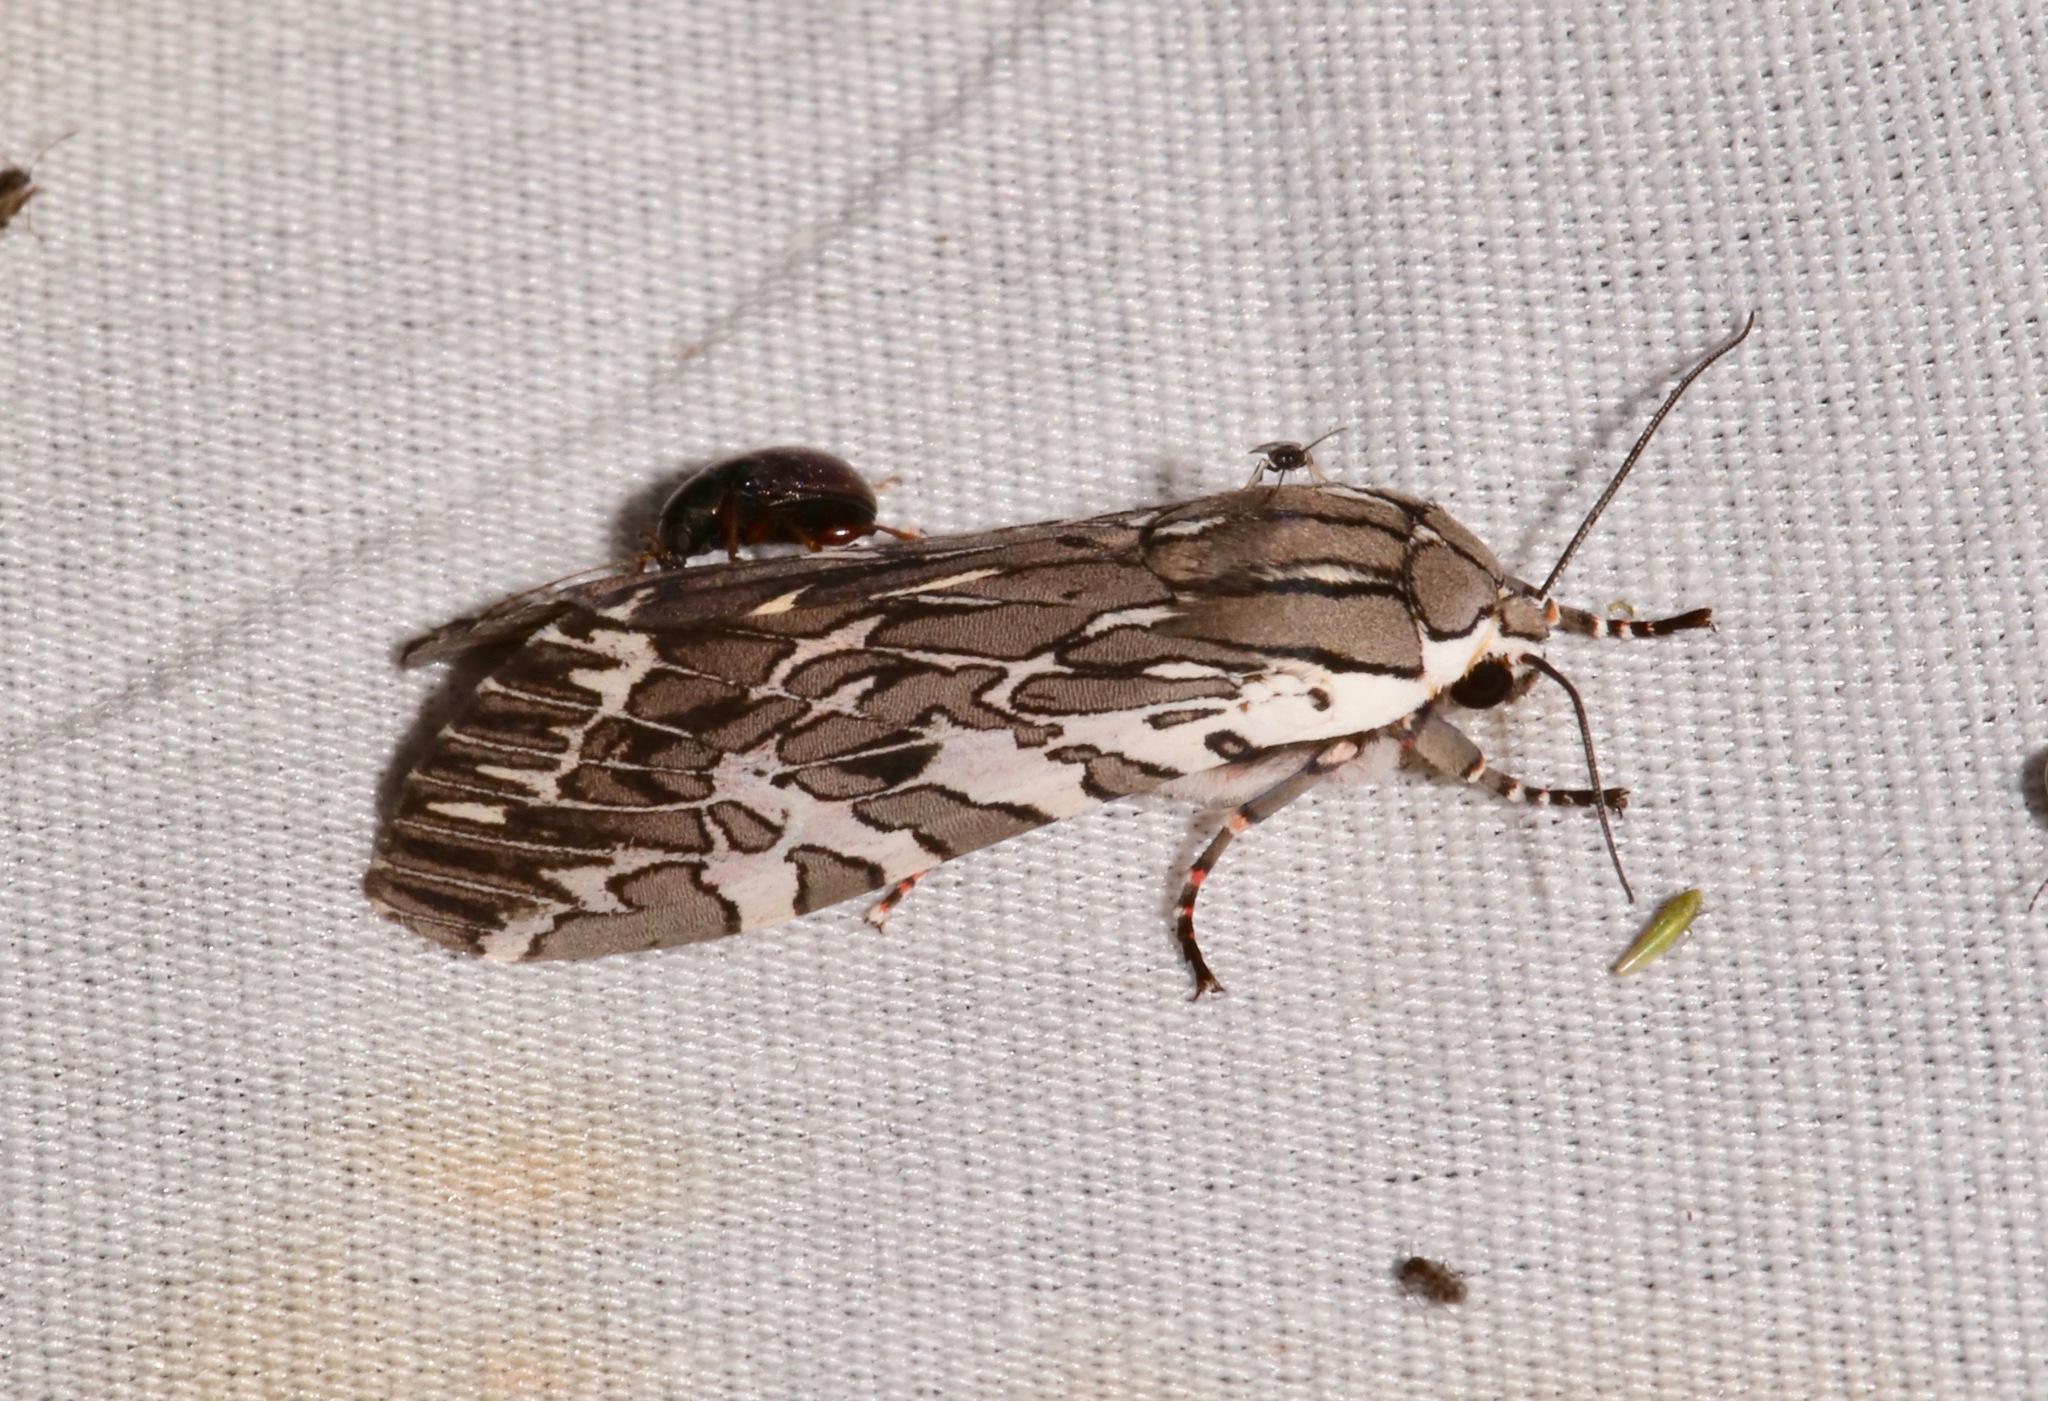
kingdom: Animalia
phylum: Arthropoda
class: Insecta
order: Lepidoptera
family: Erebidae
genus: Arachnis
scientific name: Arachnis aulaea
